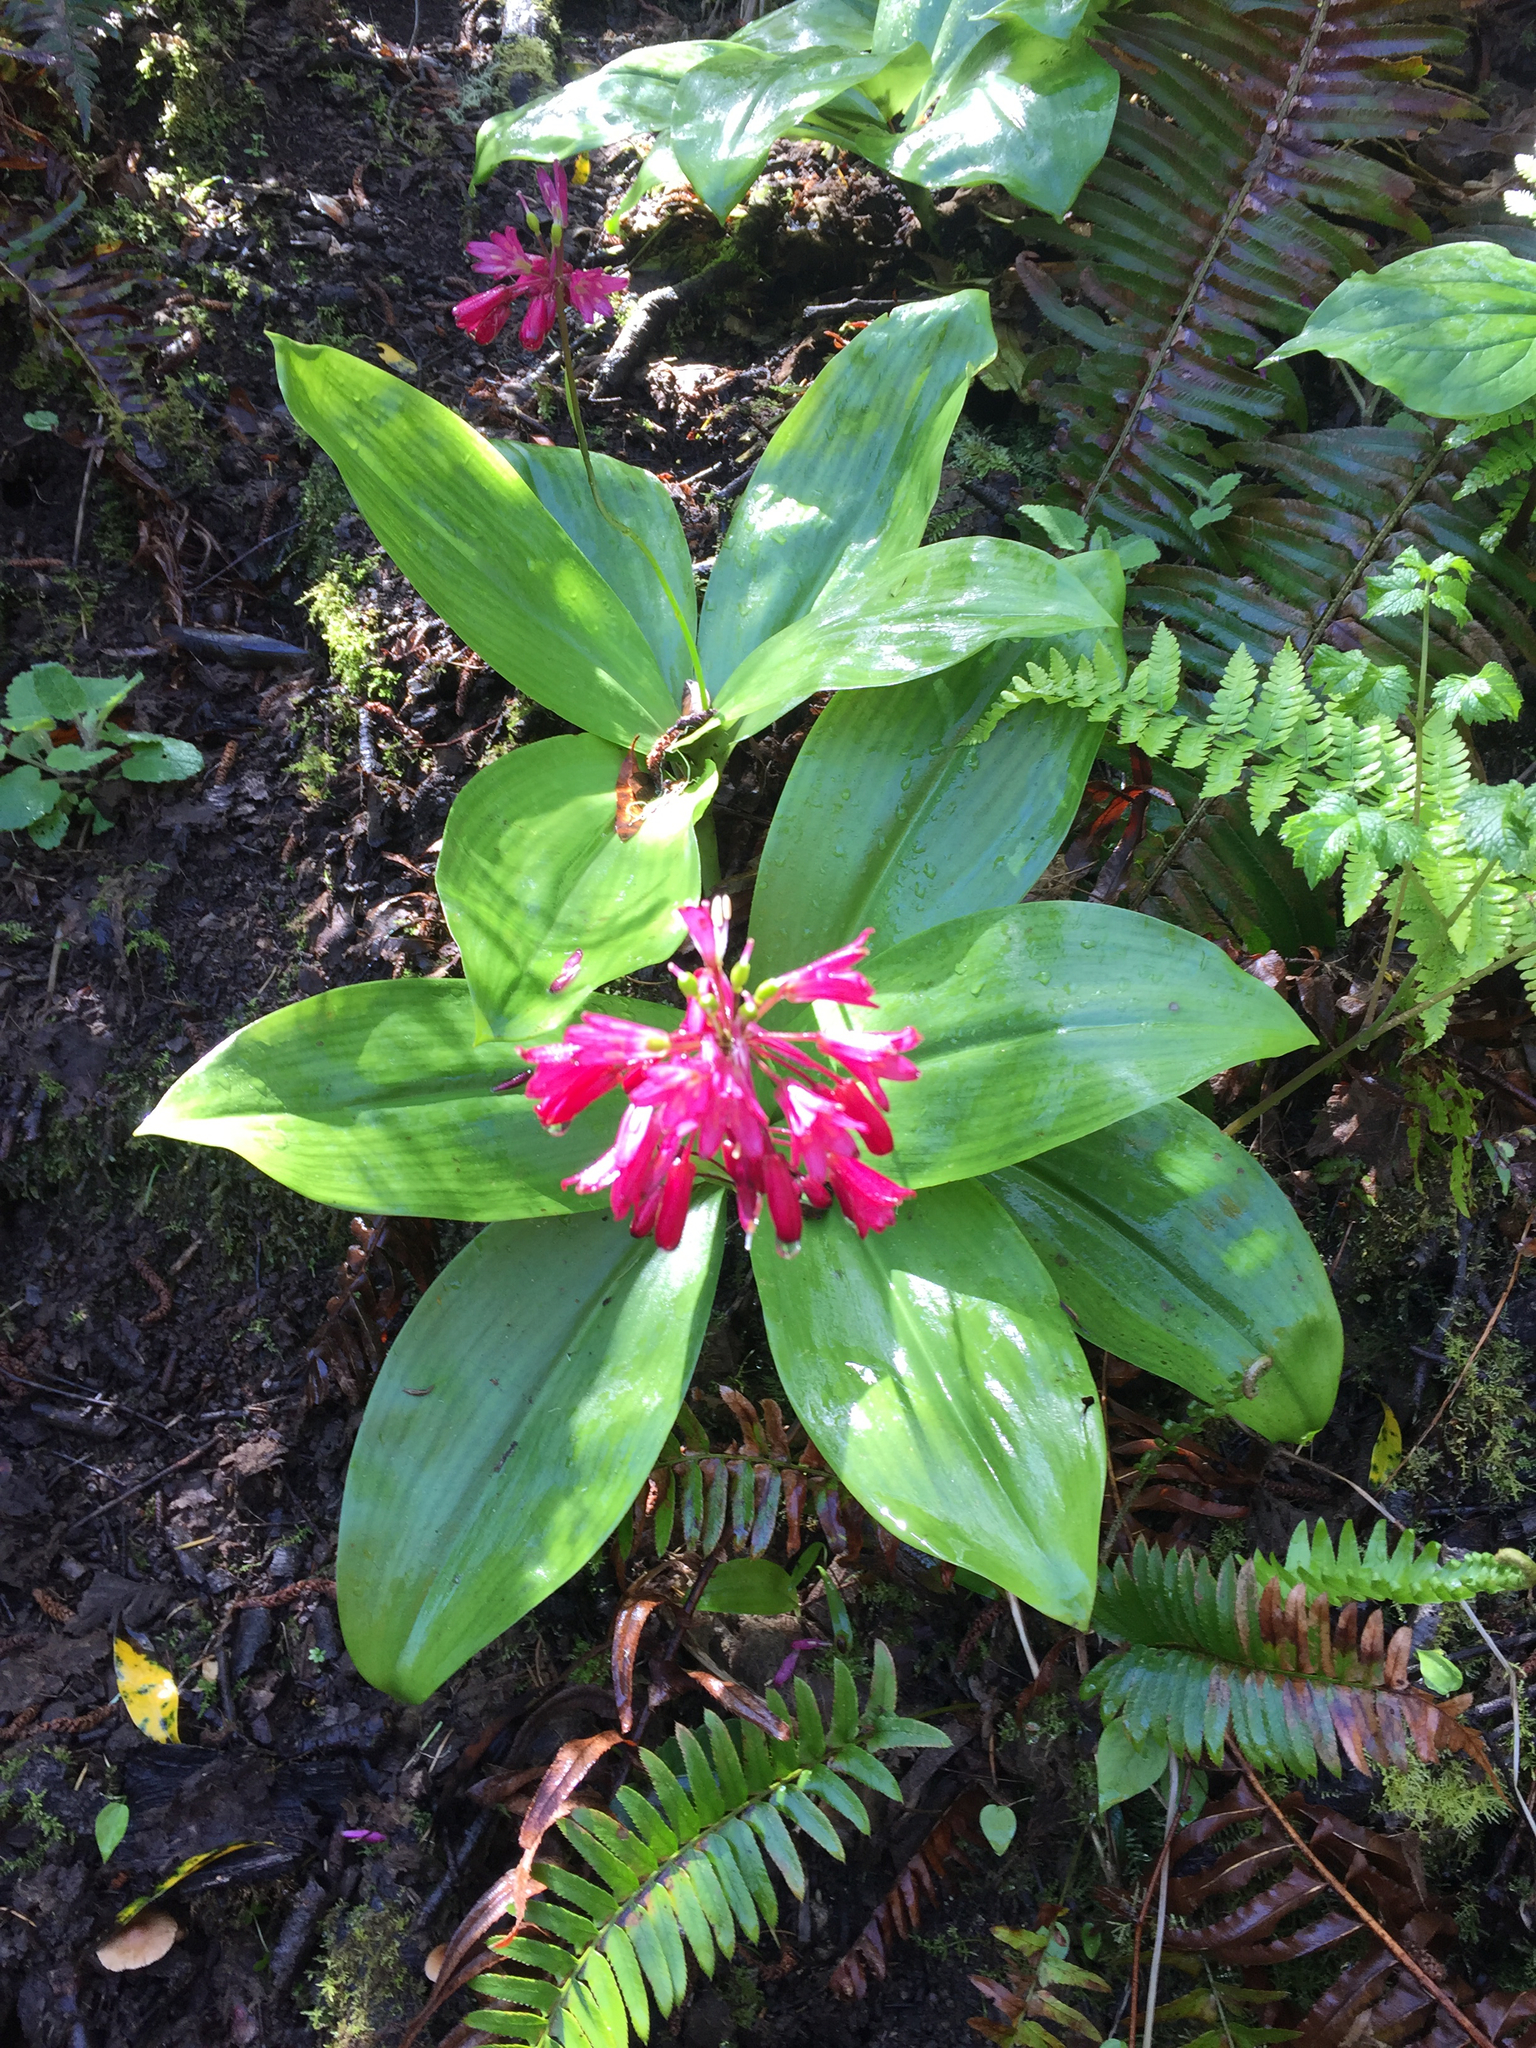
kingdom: Plantae
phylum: Tracheophyta
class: Liliopsida
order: Liliales
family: Liliaceae
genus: Clintonia
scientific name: Clintonia andrewsiana
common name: Red clintonia
